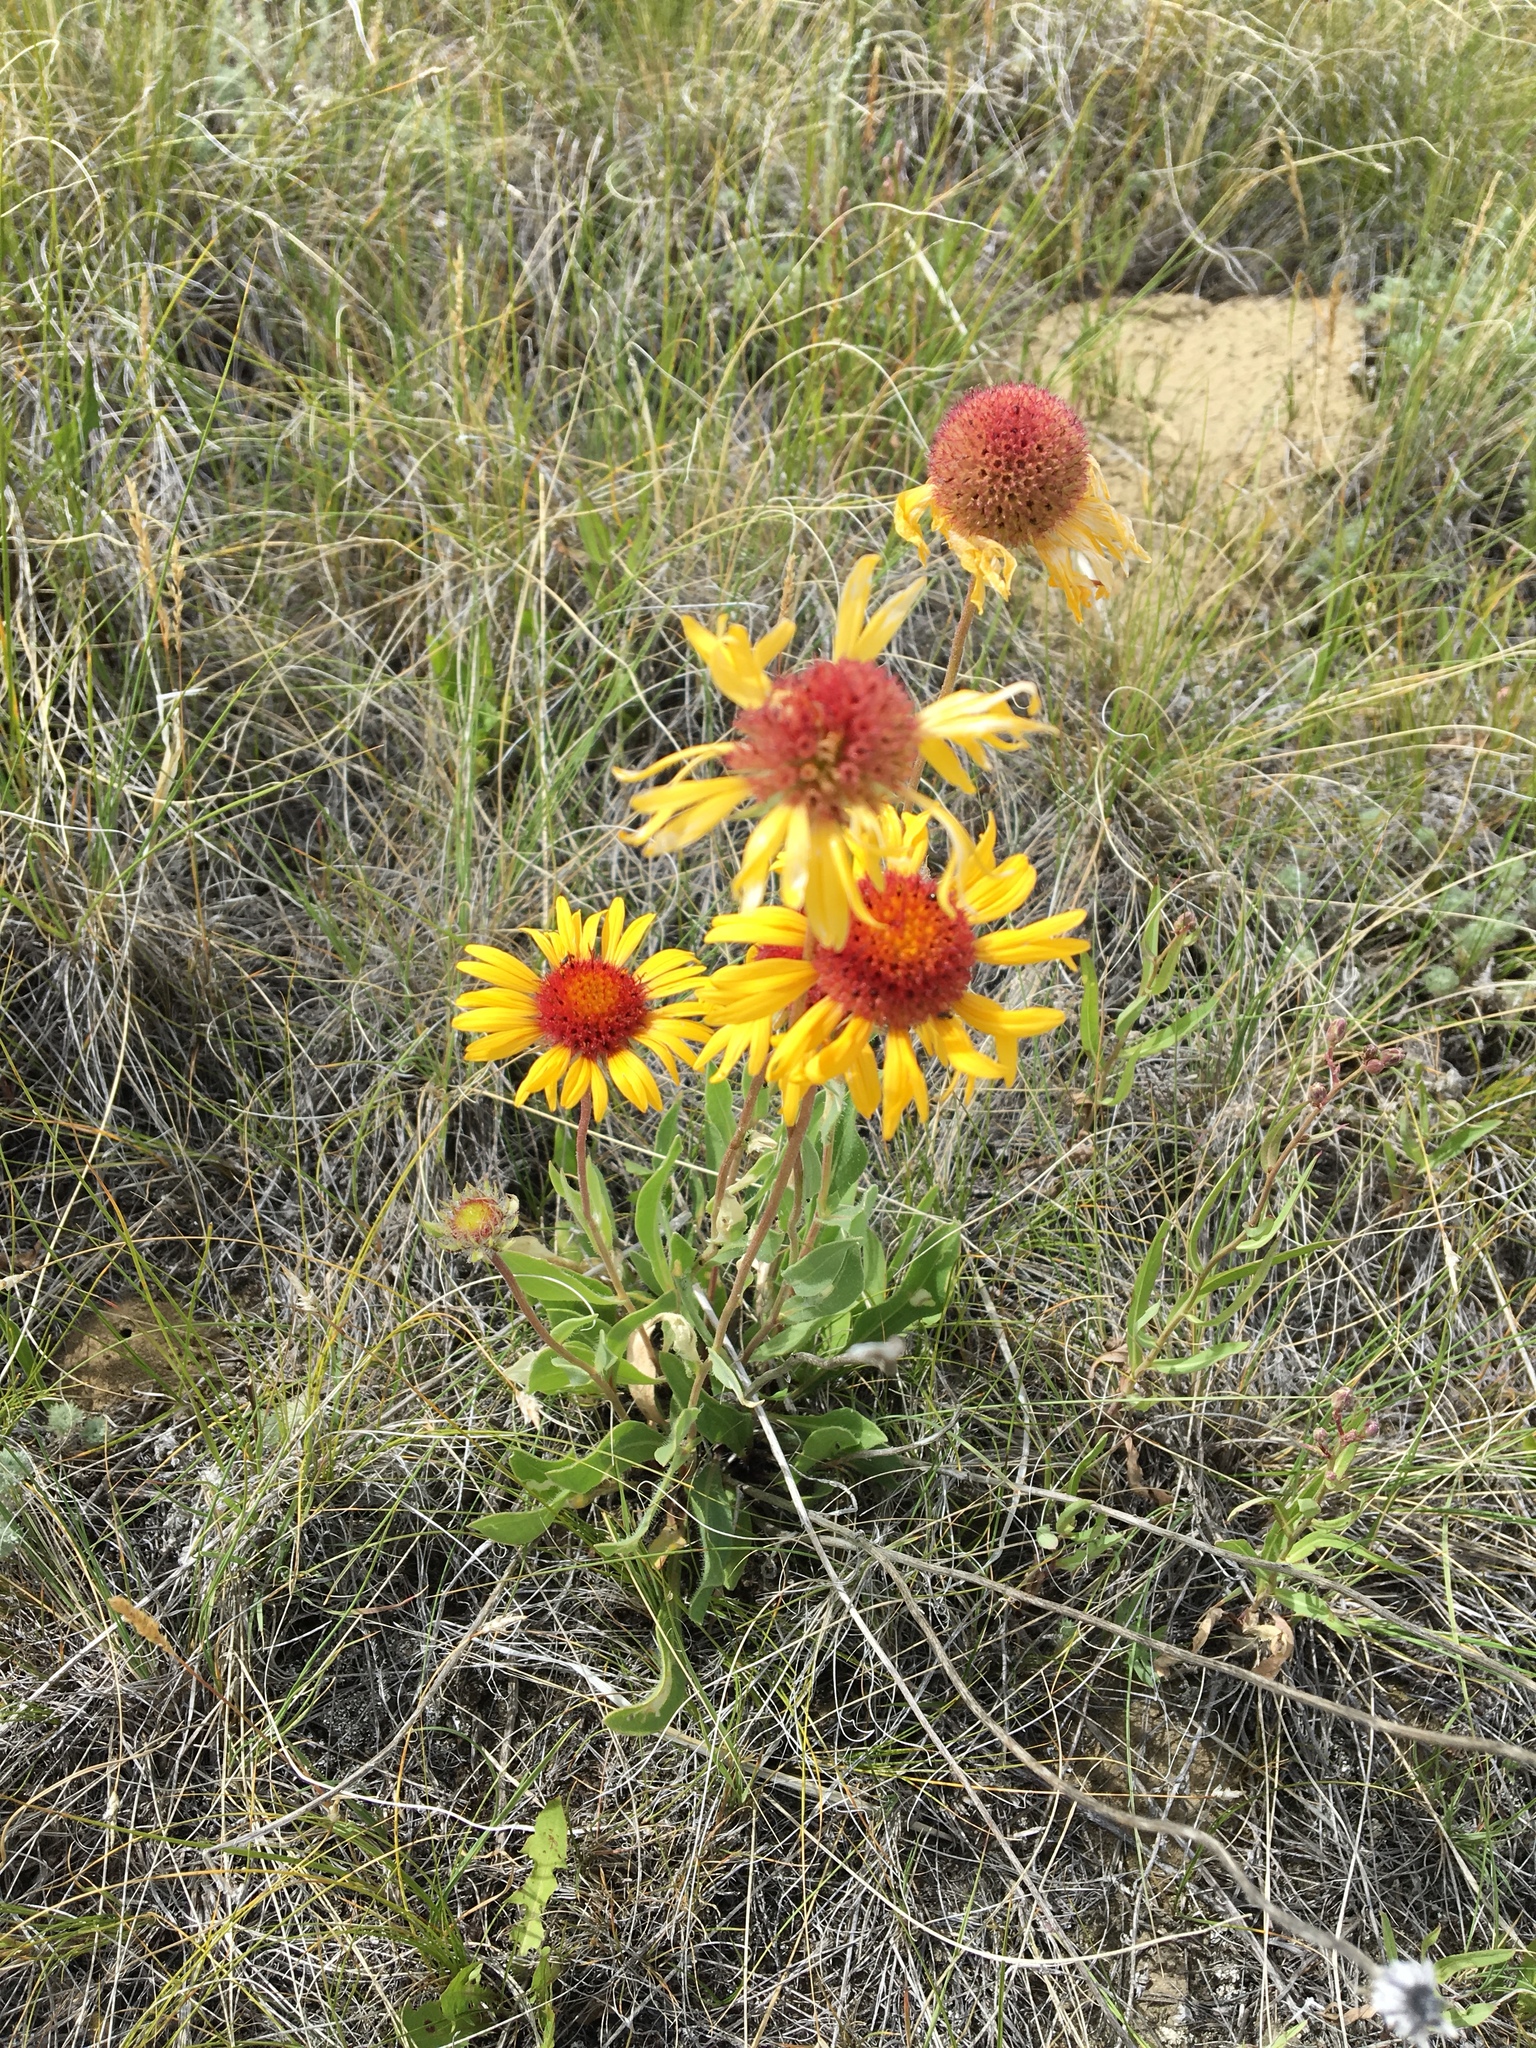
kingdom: Plantae
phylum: Tracheophyta
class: Magnoliopsida
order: Asterales
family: Asteraceae
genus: Gaillardia
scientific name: Gaillardia aristata
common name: Blanket-flower
